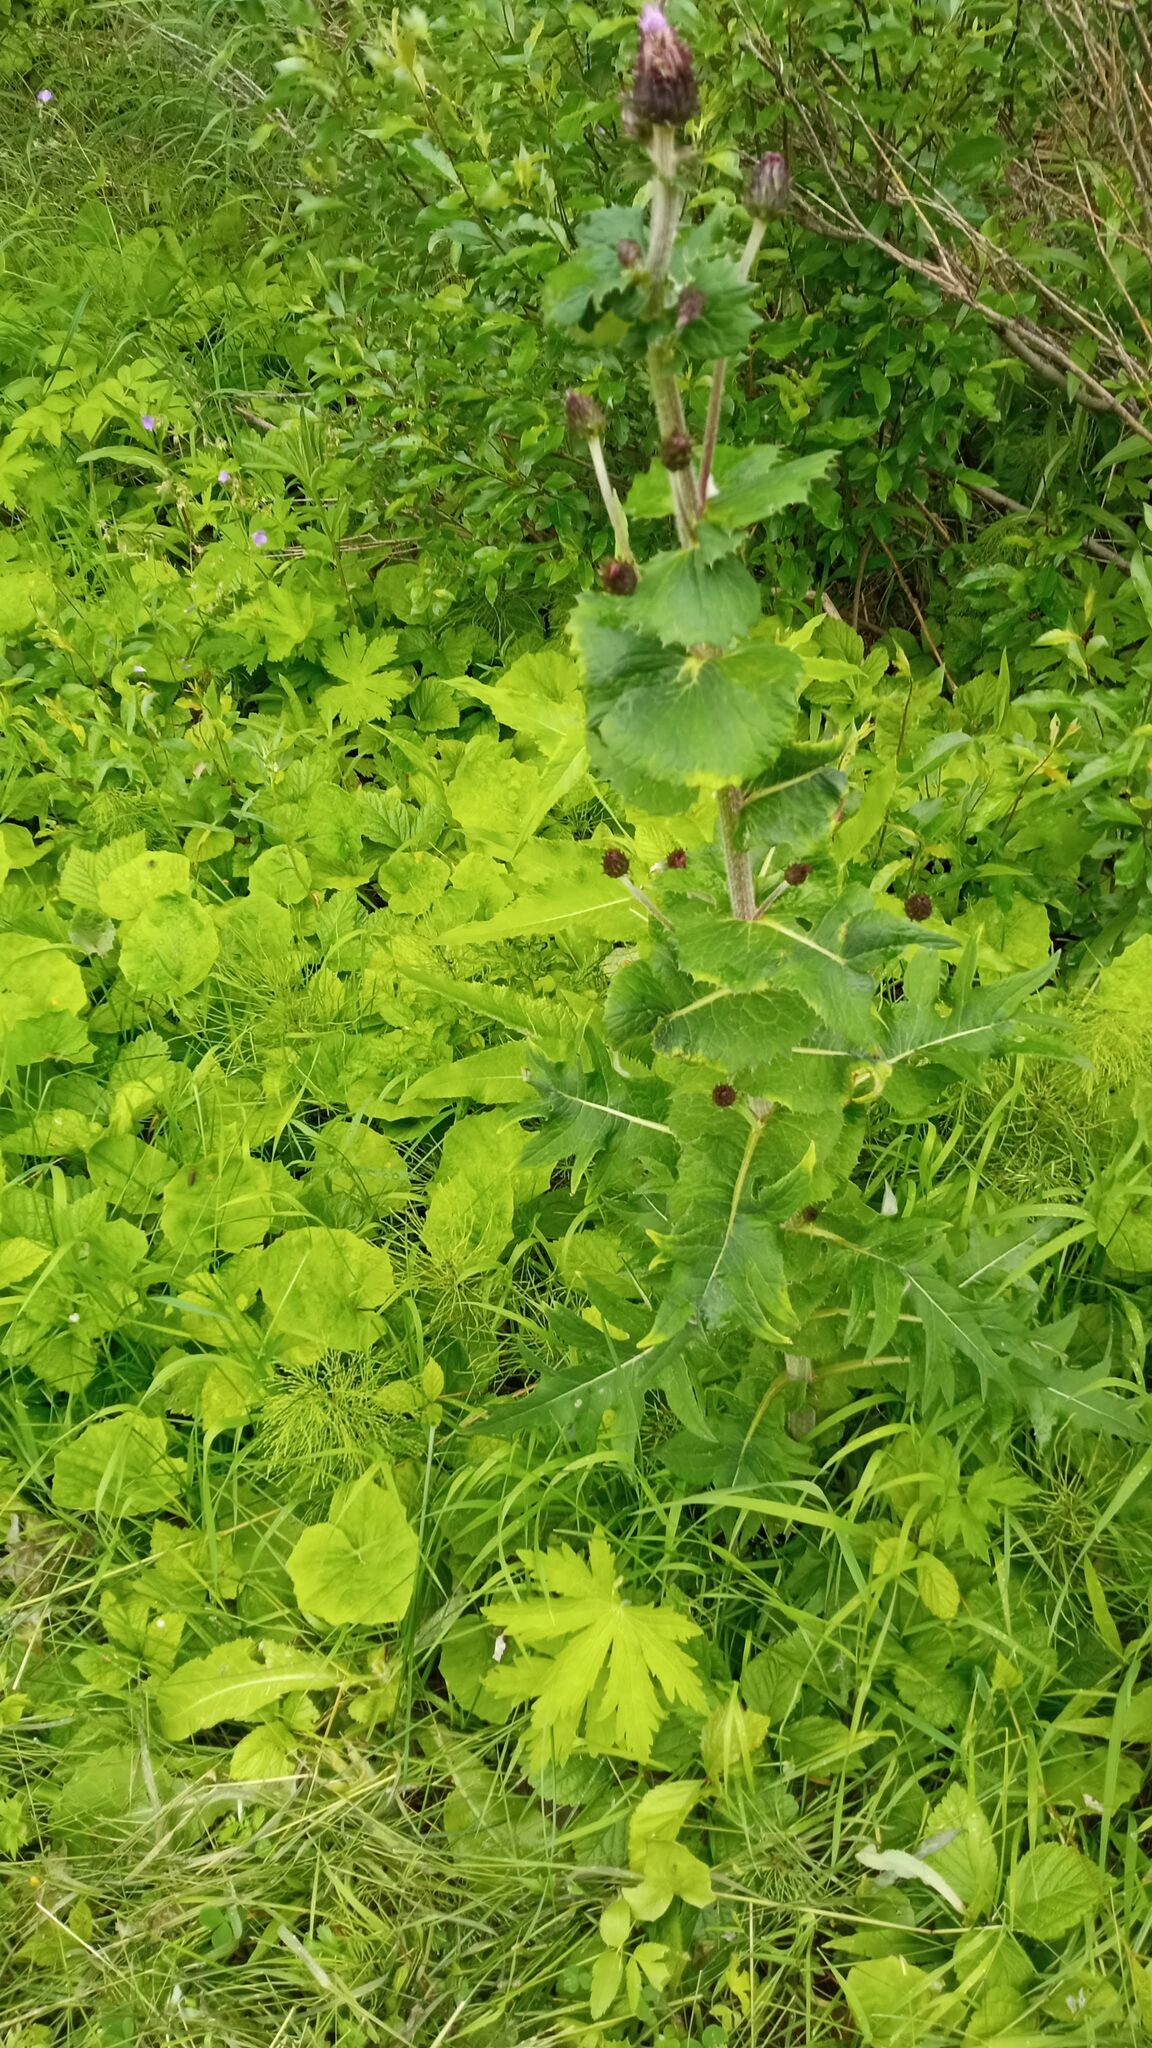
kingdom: Plantae
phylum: Tracheophyta
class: Magnoliopsida
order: Asterales
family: Asteraceae
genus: Cirsium
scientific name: Cirsium heterophyllum
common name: Melancholy thistle
